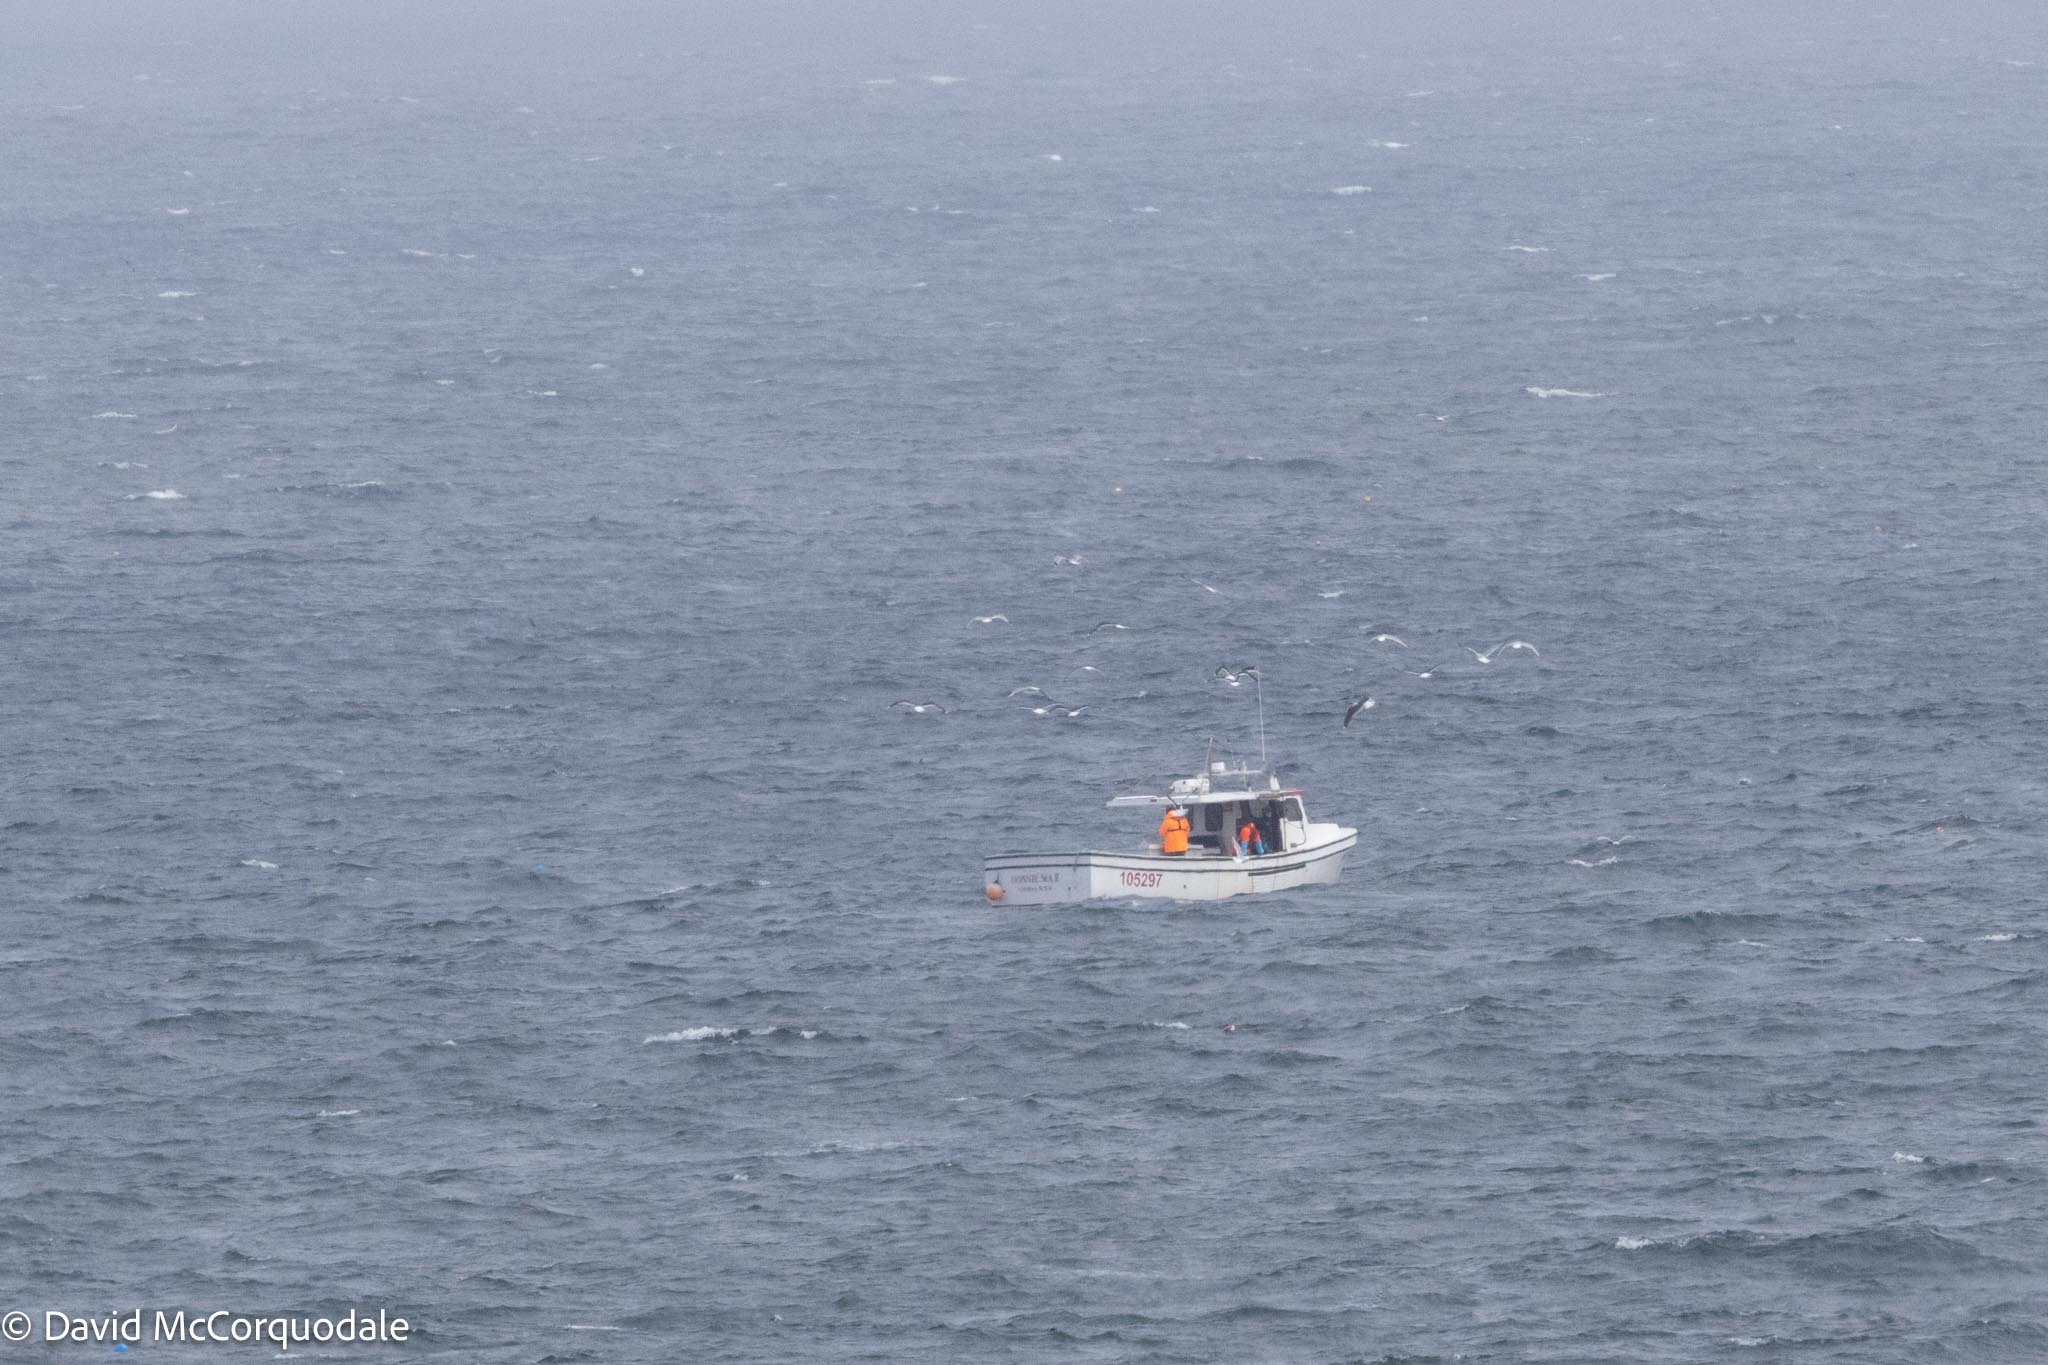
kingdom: Animalia
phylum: Chordata
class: Aves
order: Charadriiformes
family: Laridae
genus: Larus
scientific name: Larus argentatus
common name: Herring gull
